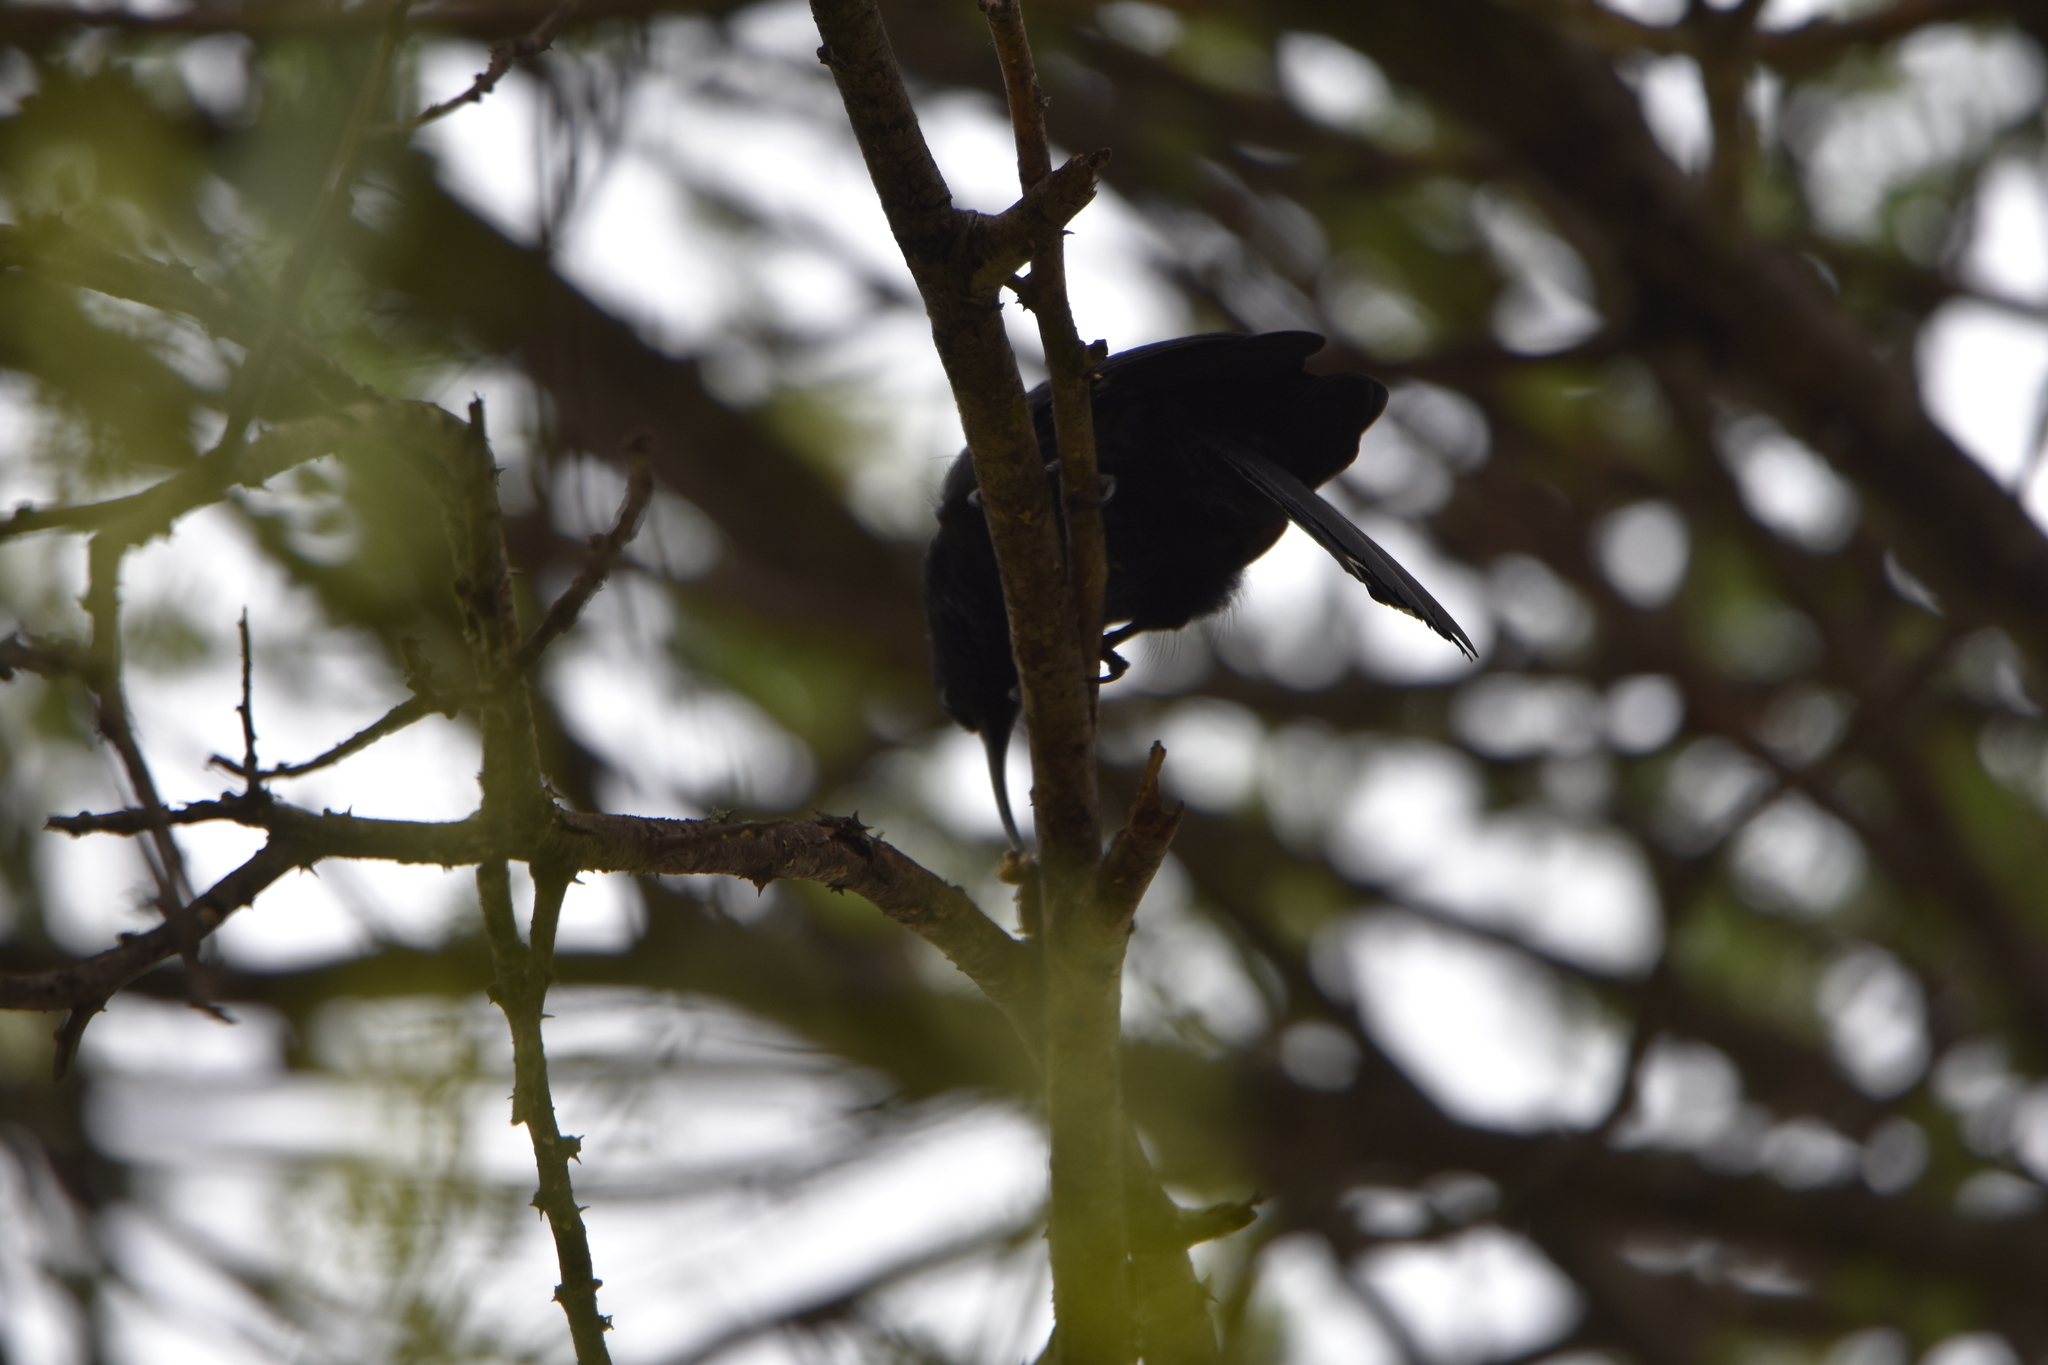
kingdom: Animalia
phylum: Chordata
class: Aves
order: Bucerotiformes
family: Phoeniculidae
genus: Rhinopomastus
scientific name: Rhinopomastus cyanomelas
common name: Common scimitarbill
